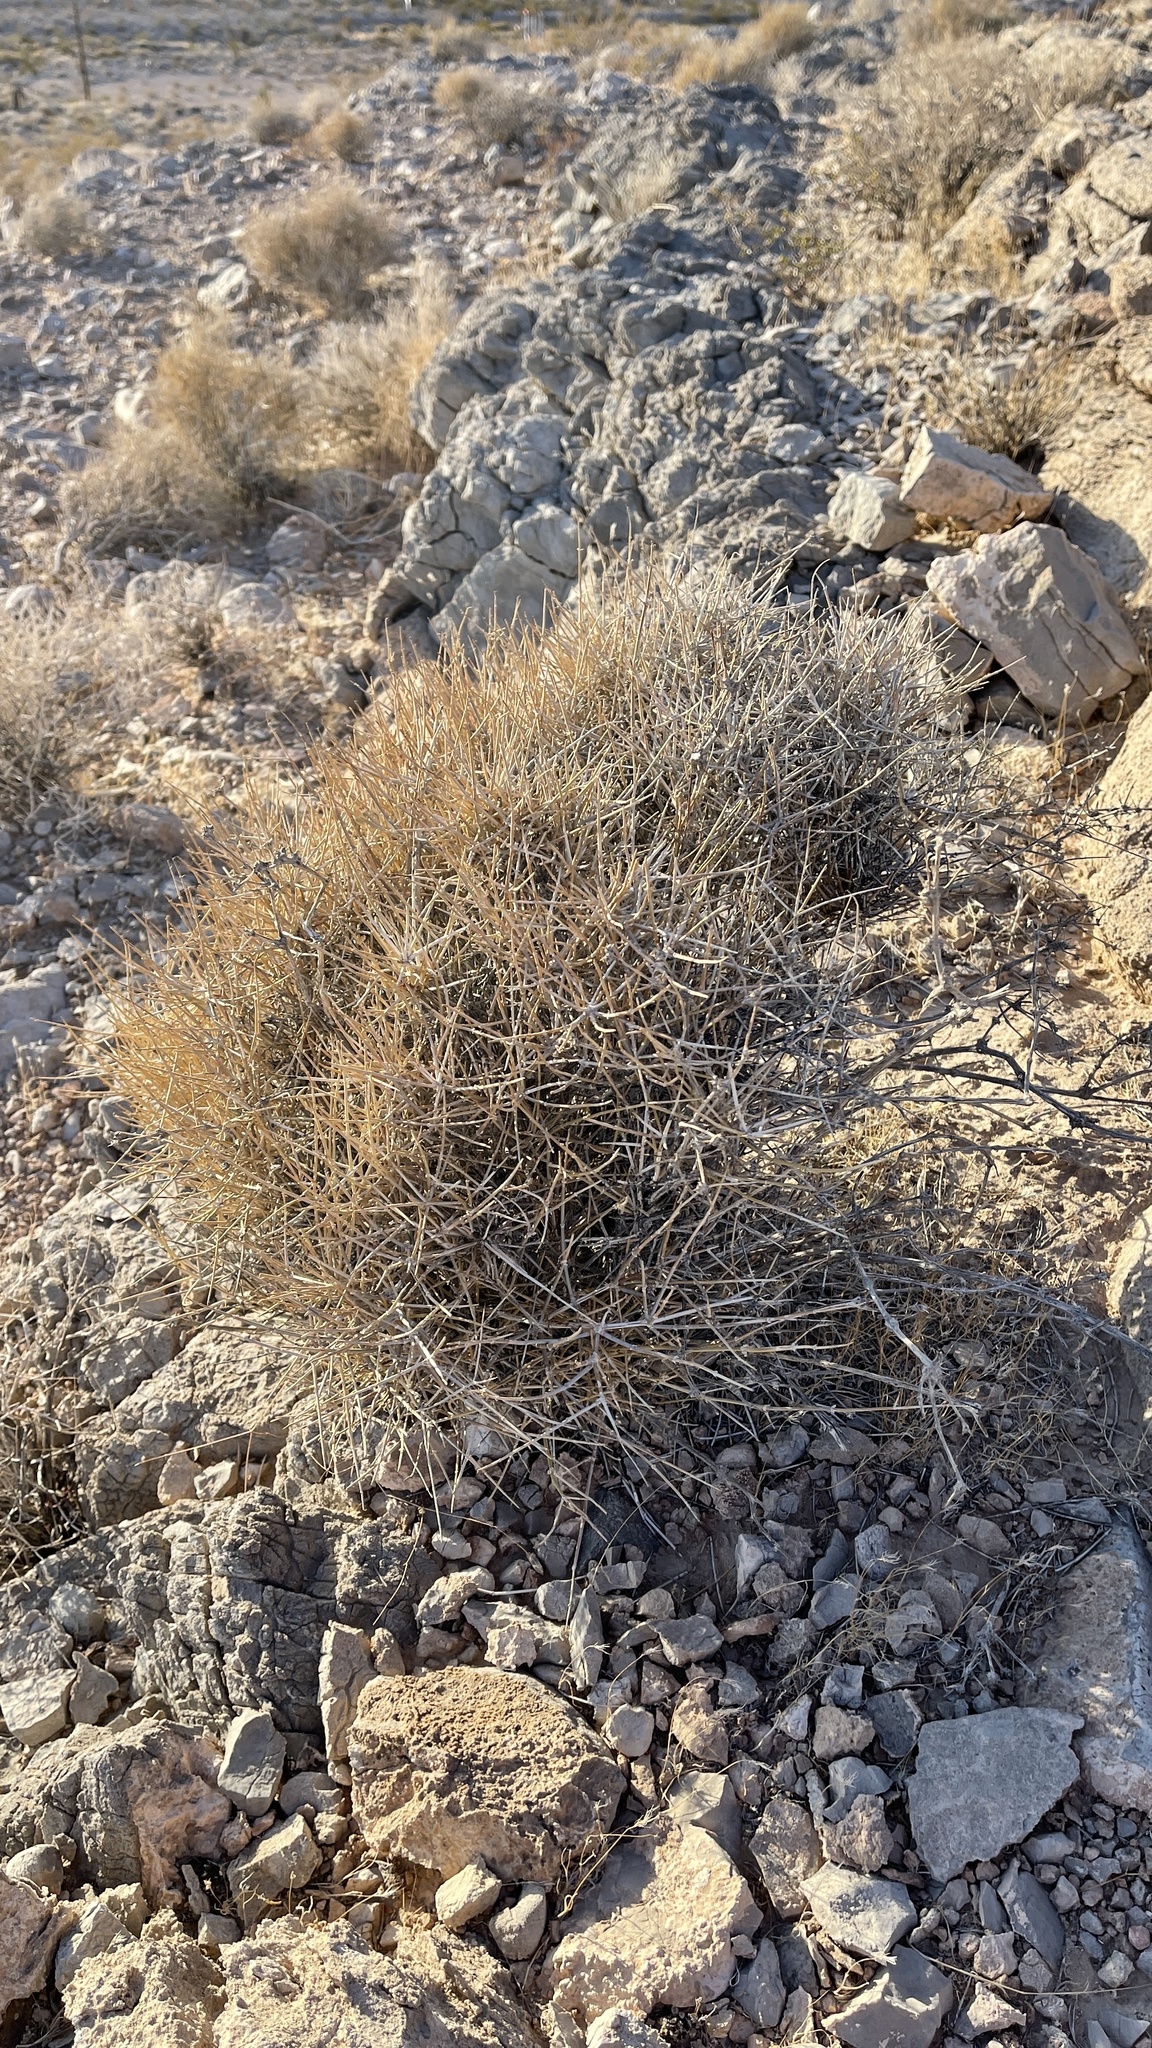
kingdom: Plantae
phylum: Tracheophyta
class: Gnetopsida
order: Ephedrales
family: Ephedraceae
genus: Ephedra
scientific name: Ephedra nevadensis
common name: Gray ephedra
